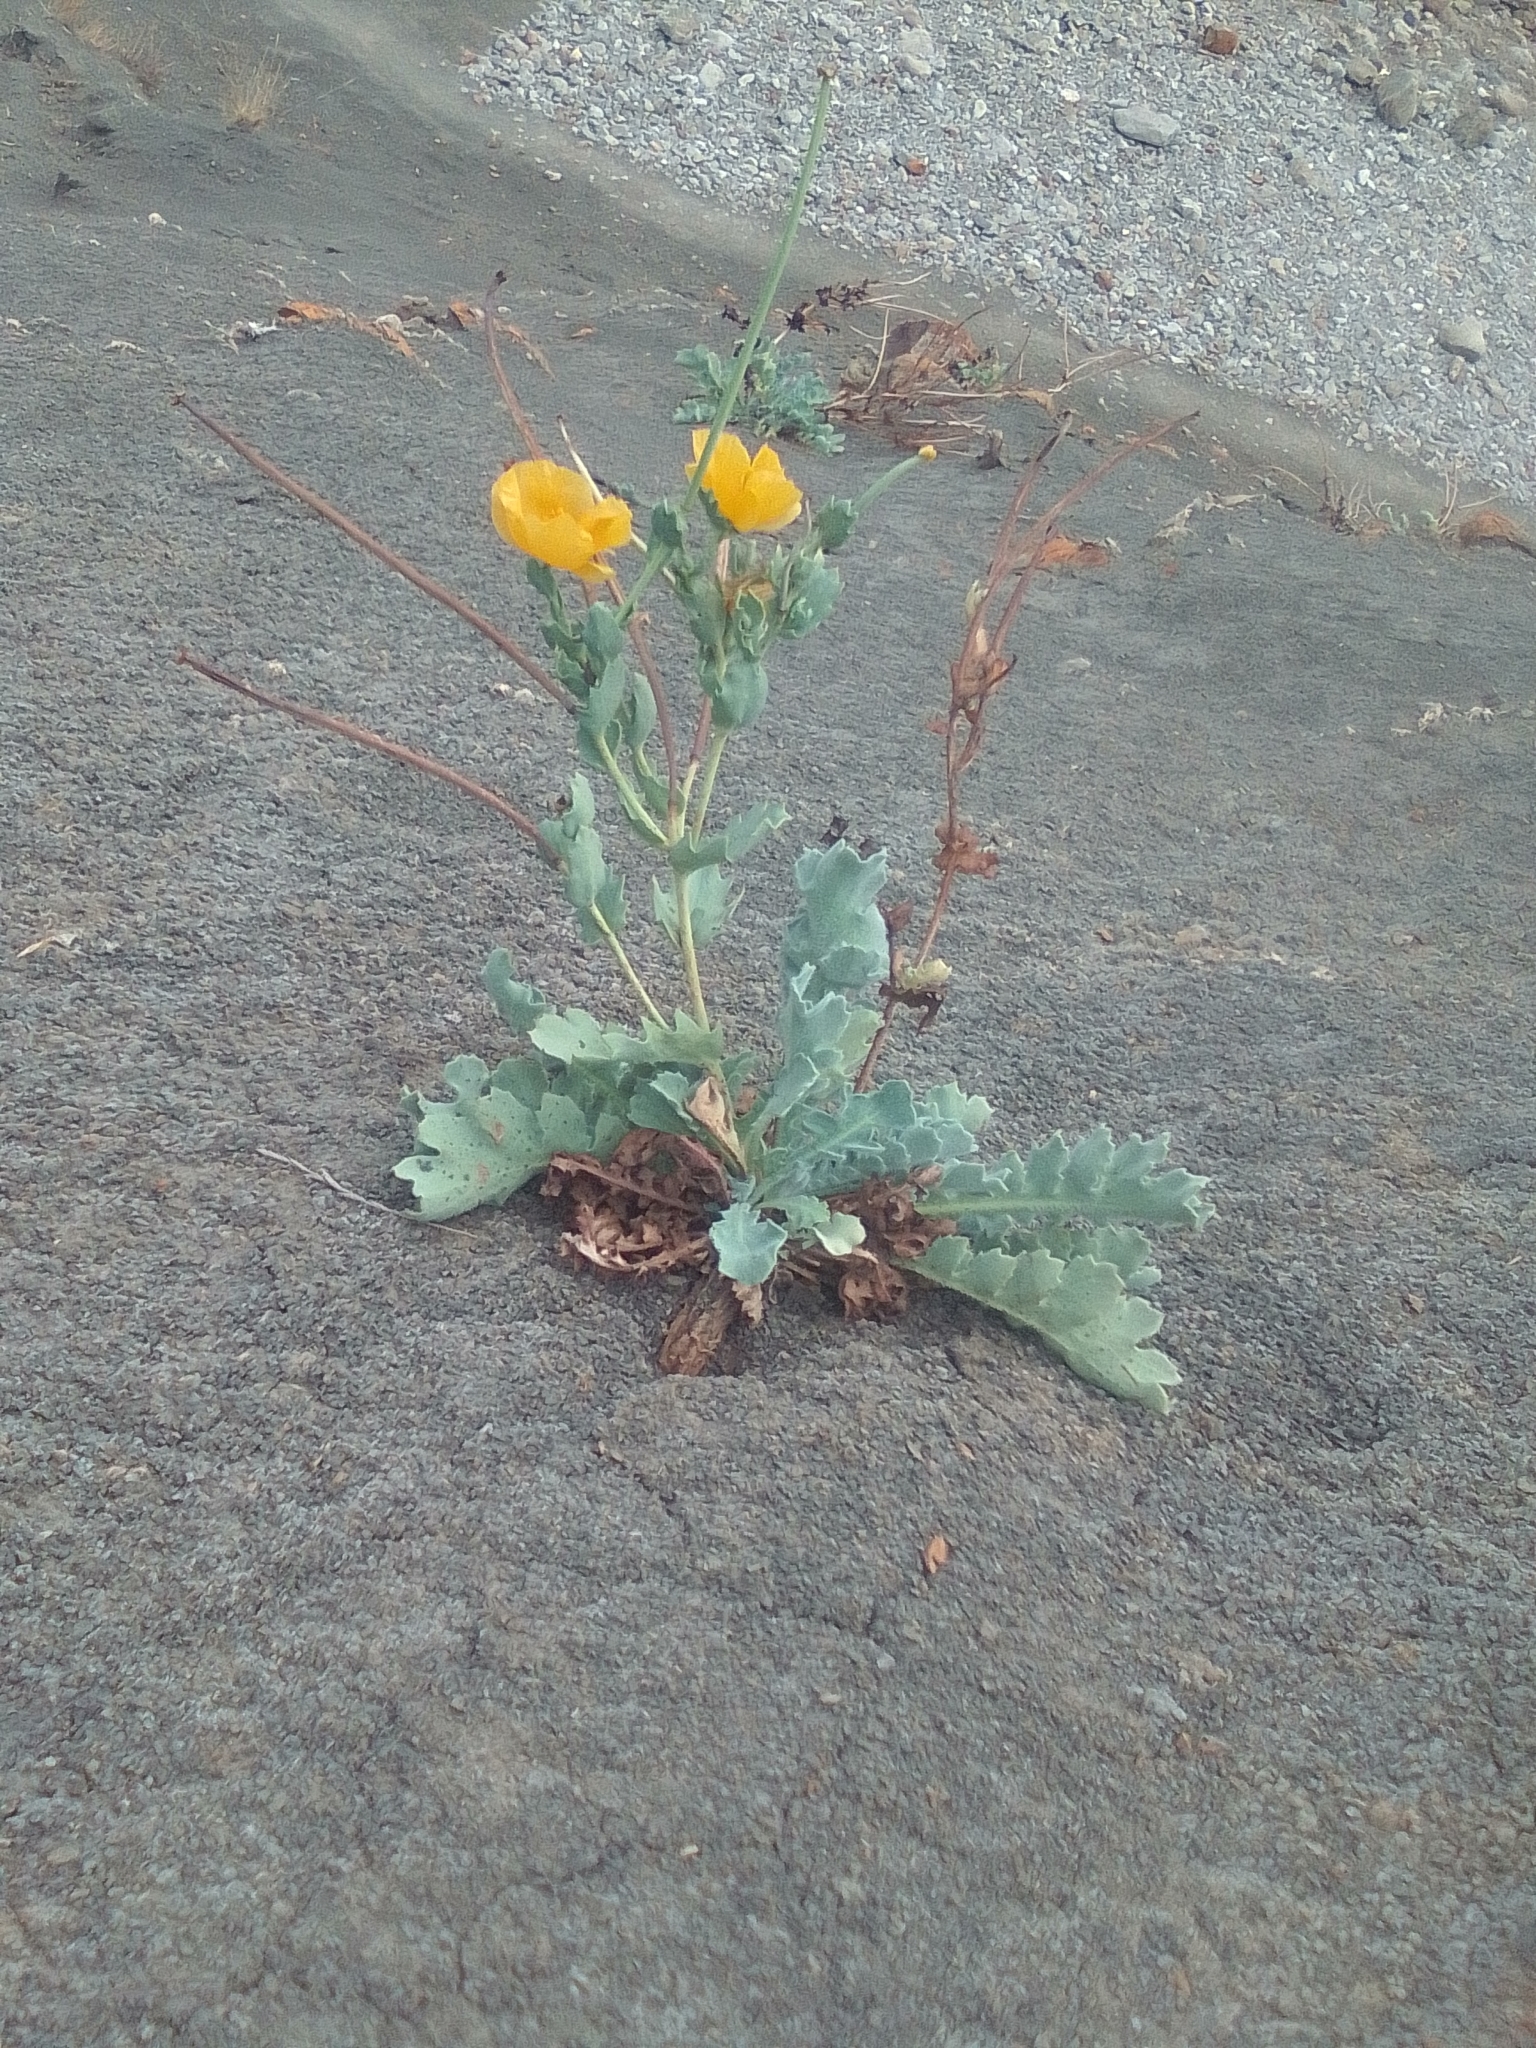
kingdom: Plantae
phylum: Tracheophyta
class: Magnoliopsida
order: Ranunculales
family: Papaveraceae
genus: Glaucium
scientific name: Glaucium flavum
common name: Yellow horned-poppy
